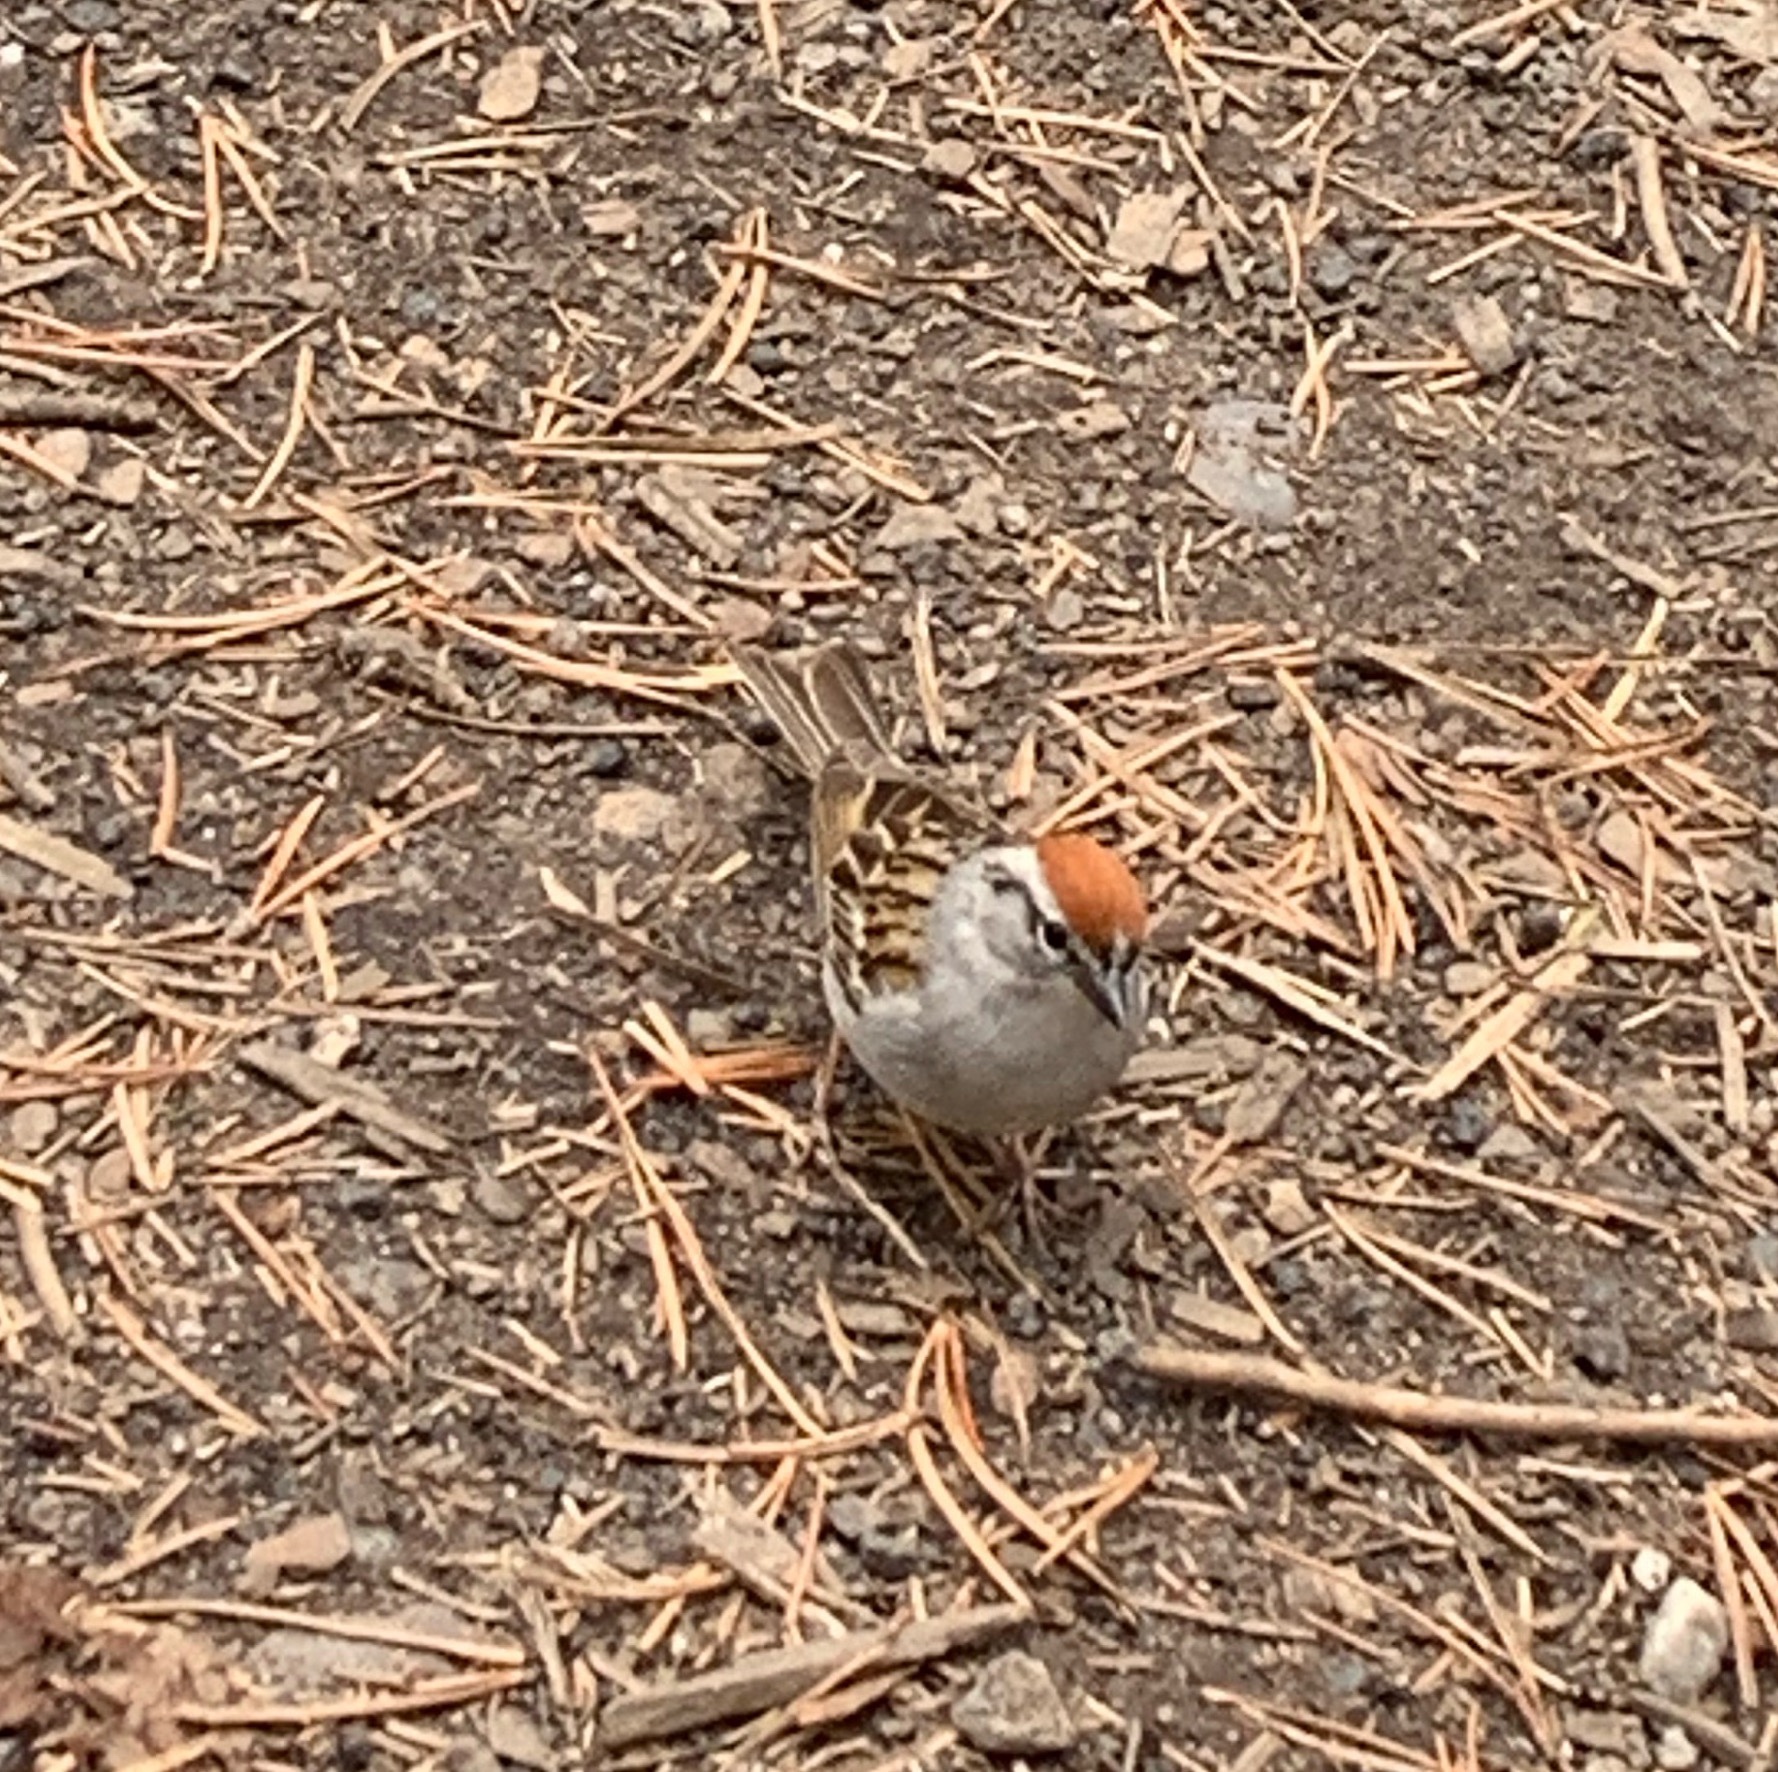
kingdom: Animalia
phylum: Chordata
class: Aves
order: Passeriformes
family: Passerellidae
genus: Spizella
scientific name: Spizella passerina
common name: Chipping sparrow
